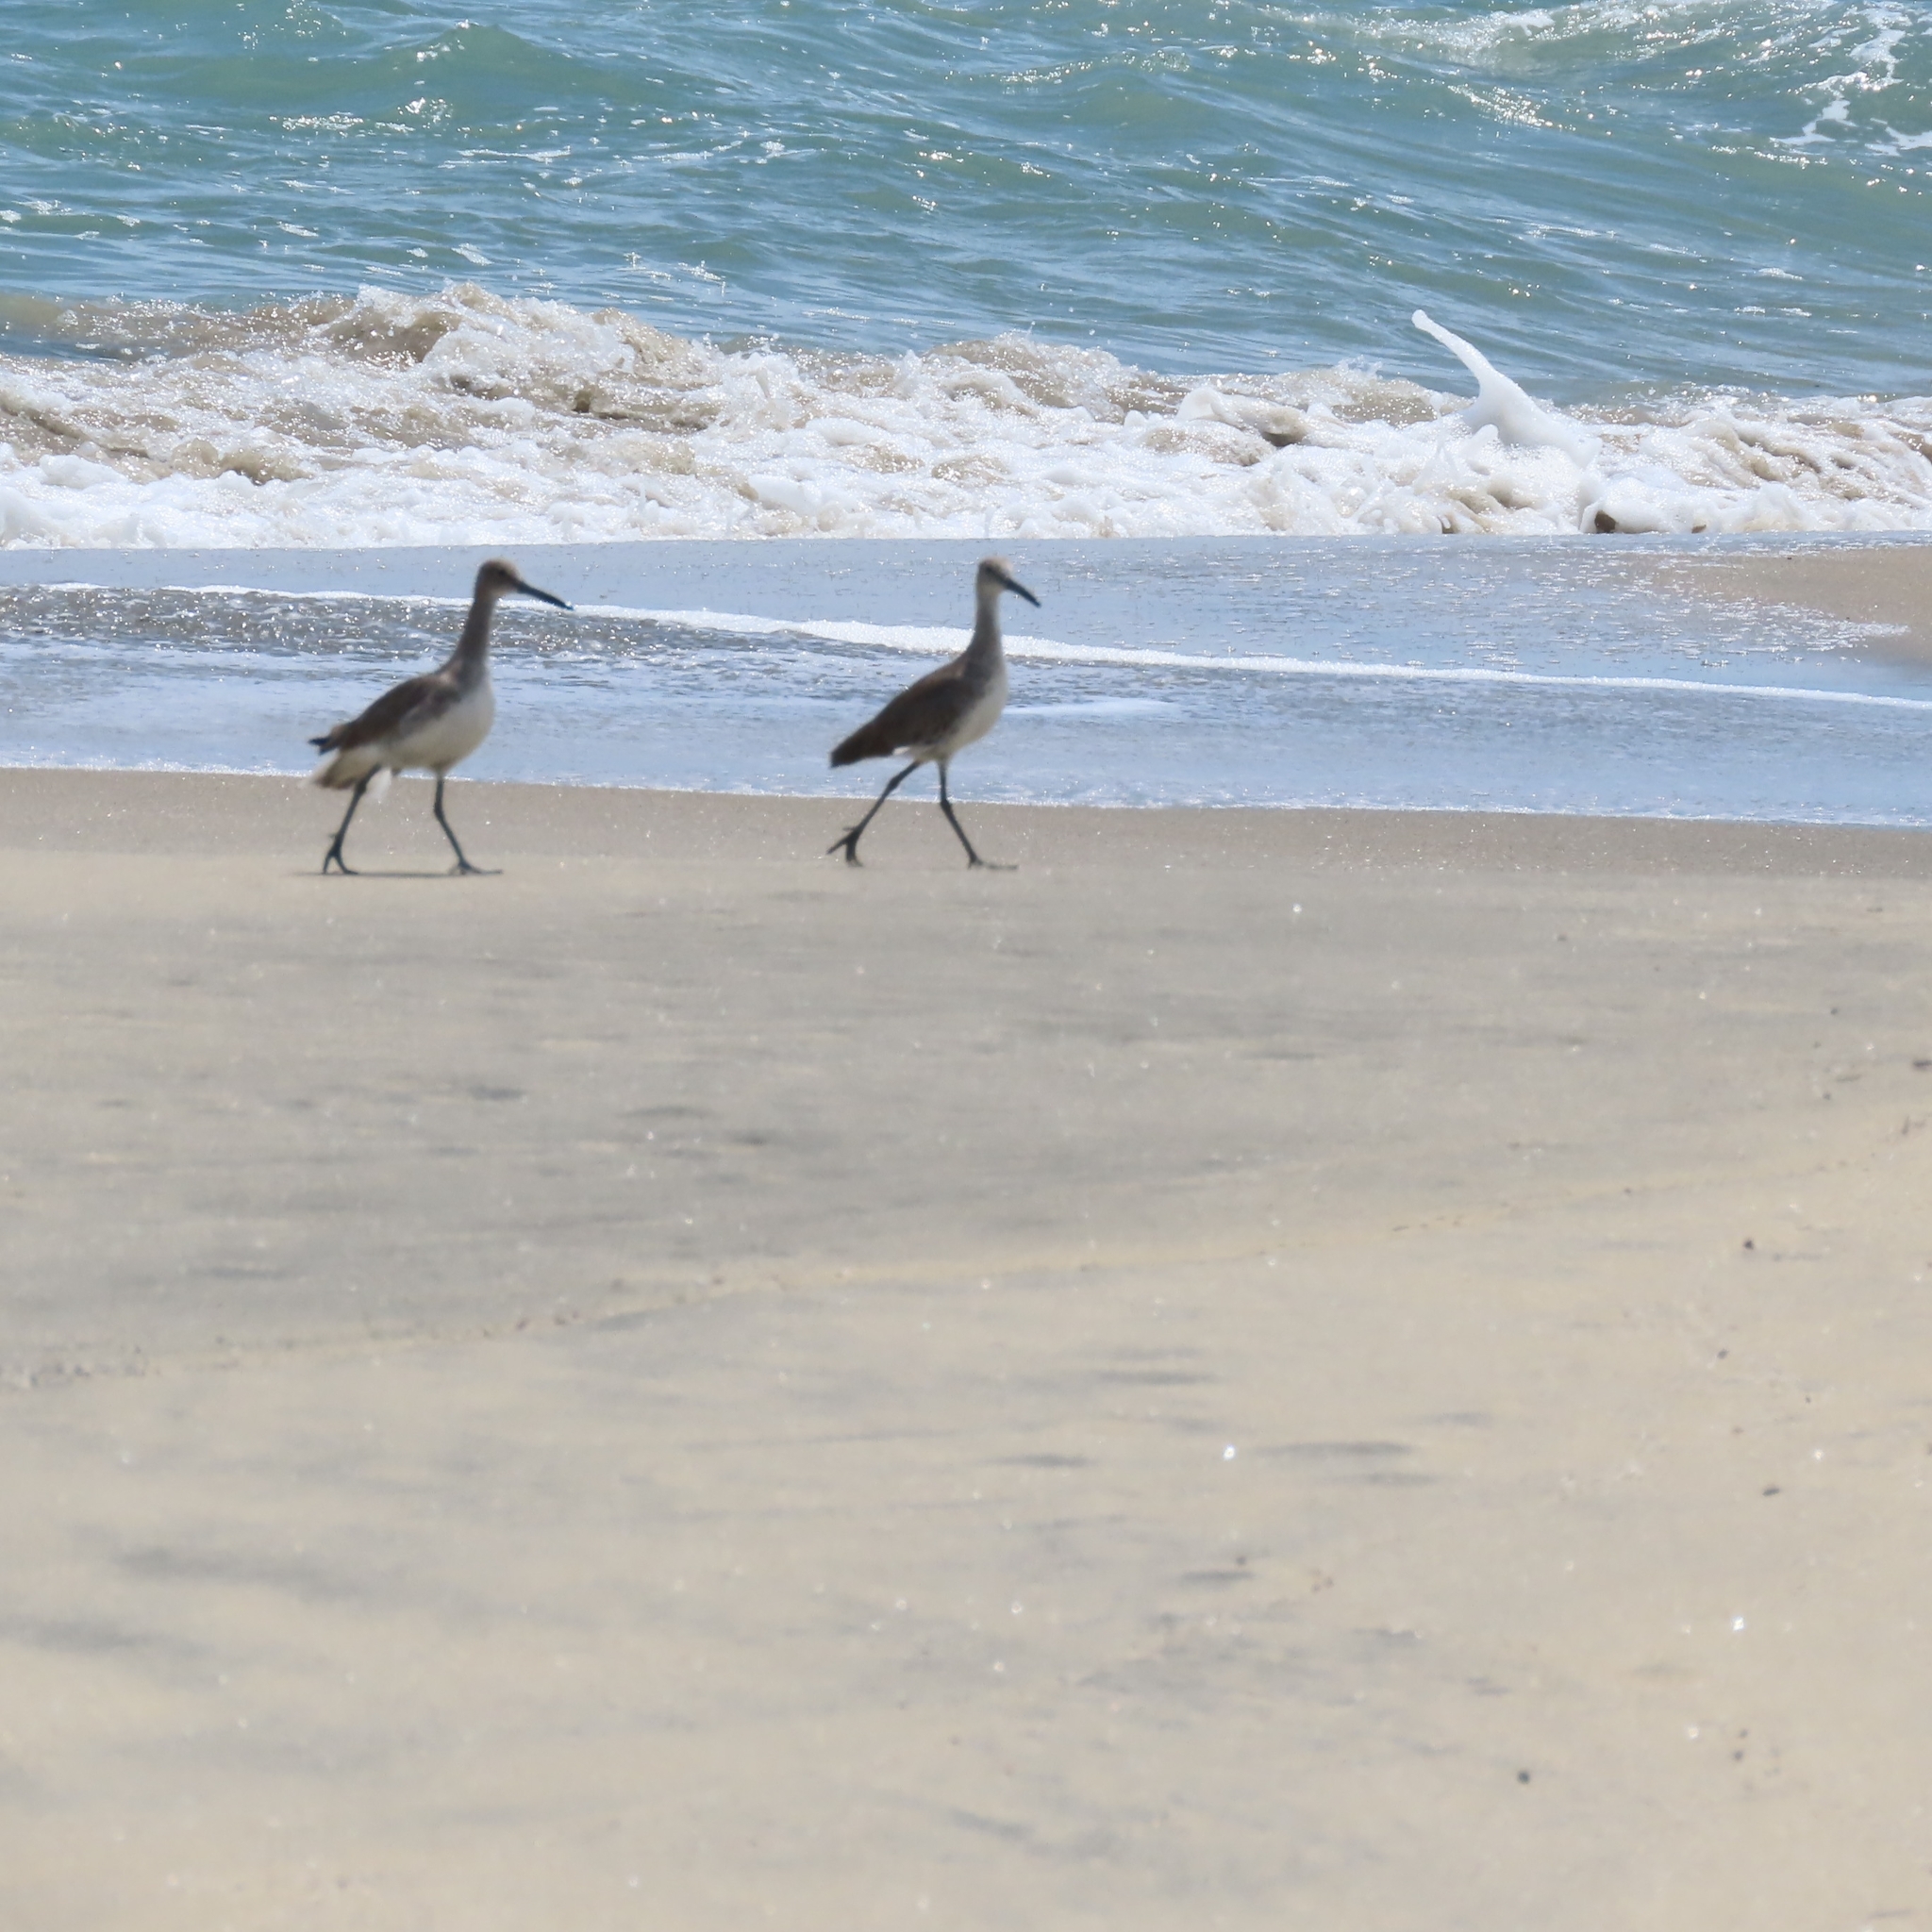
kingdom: Animalia
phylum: Chordata
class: Aves
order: Charadriiformes
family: Scolopacidae
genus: Tringa
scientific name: Tringa semipalmata
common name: Willet
